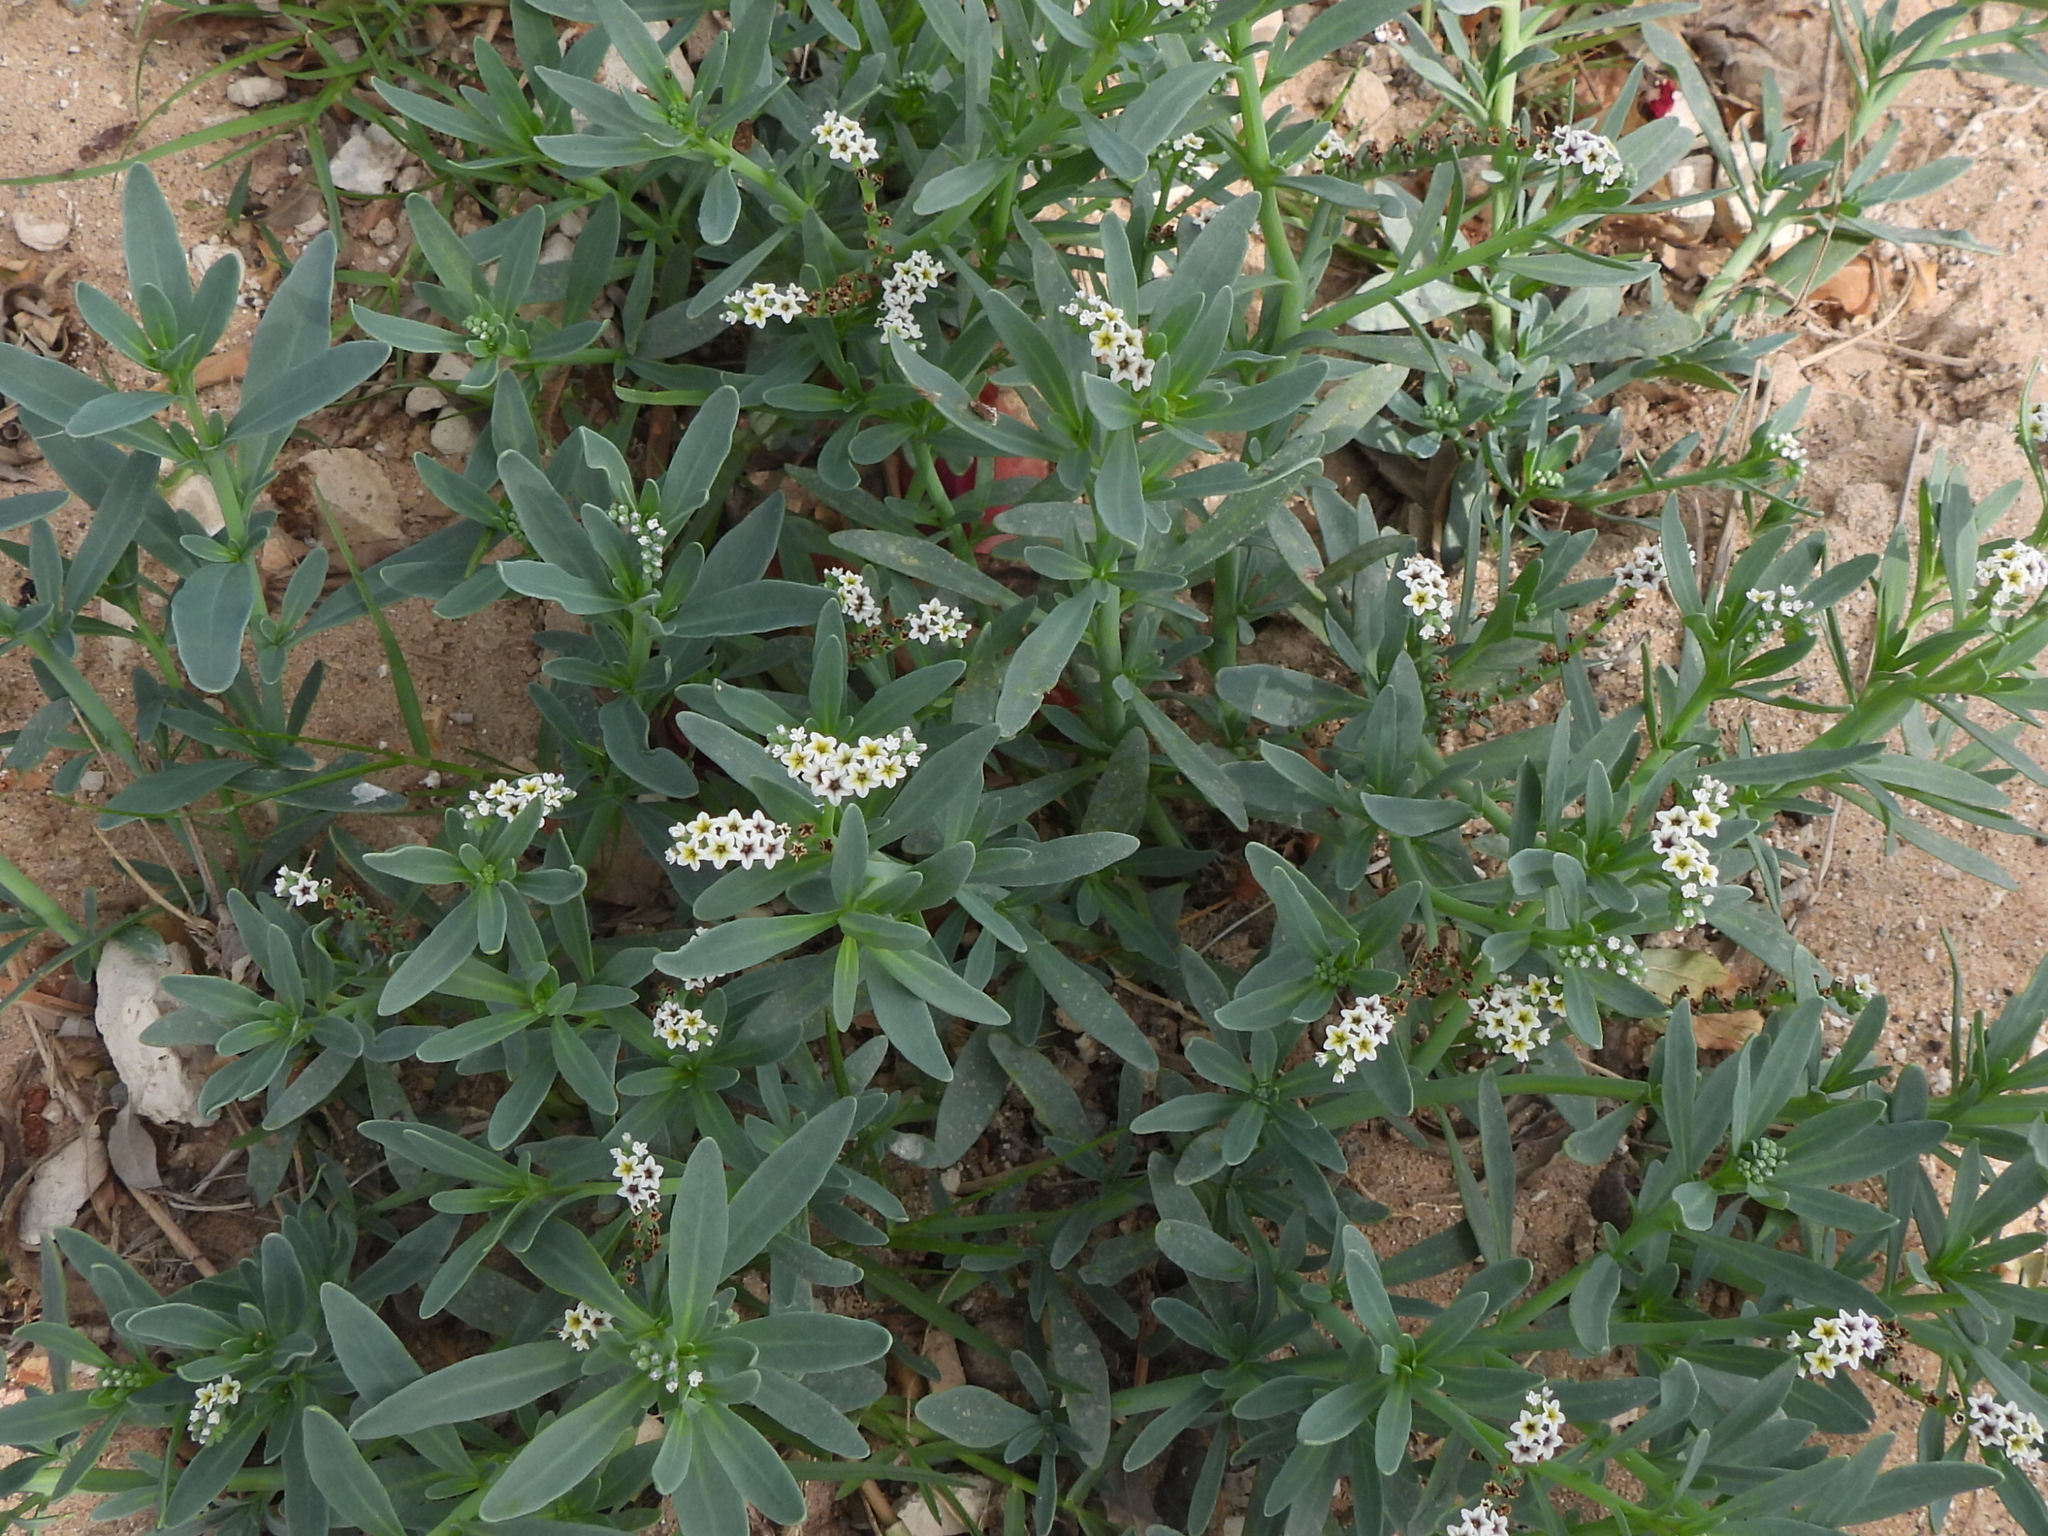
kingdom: Plantae
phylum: Tracheophyta
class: Magnoliopsida
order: Boraginales
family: Heliotropiaceae
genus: Heliotropium
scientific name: Heliotropium curassavicum
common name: Seaside heliotrope
